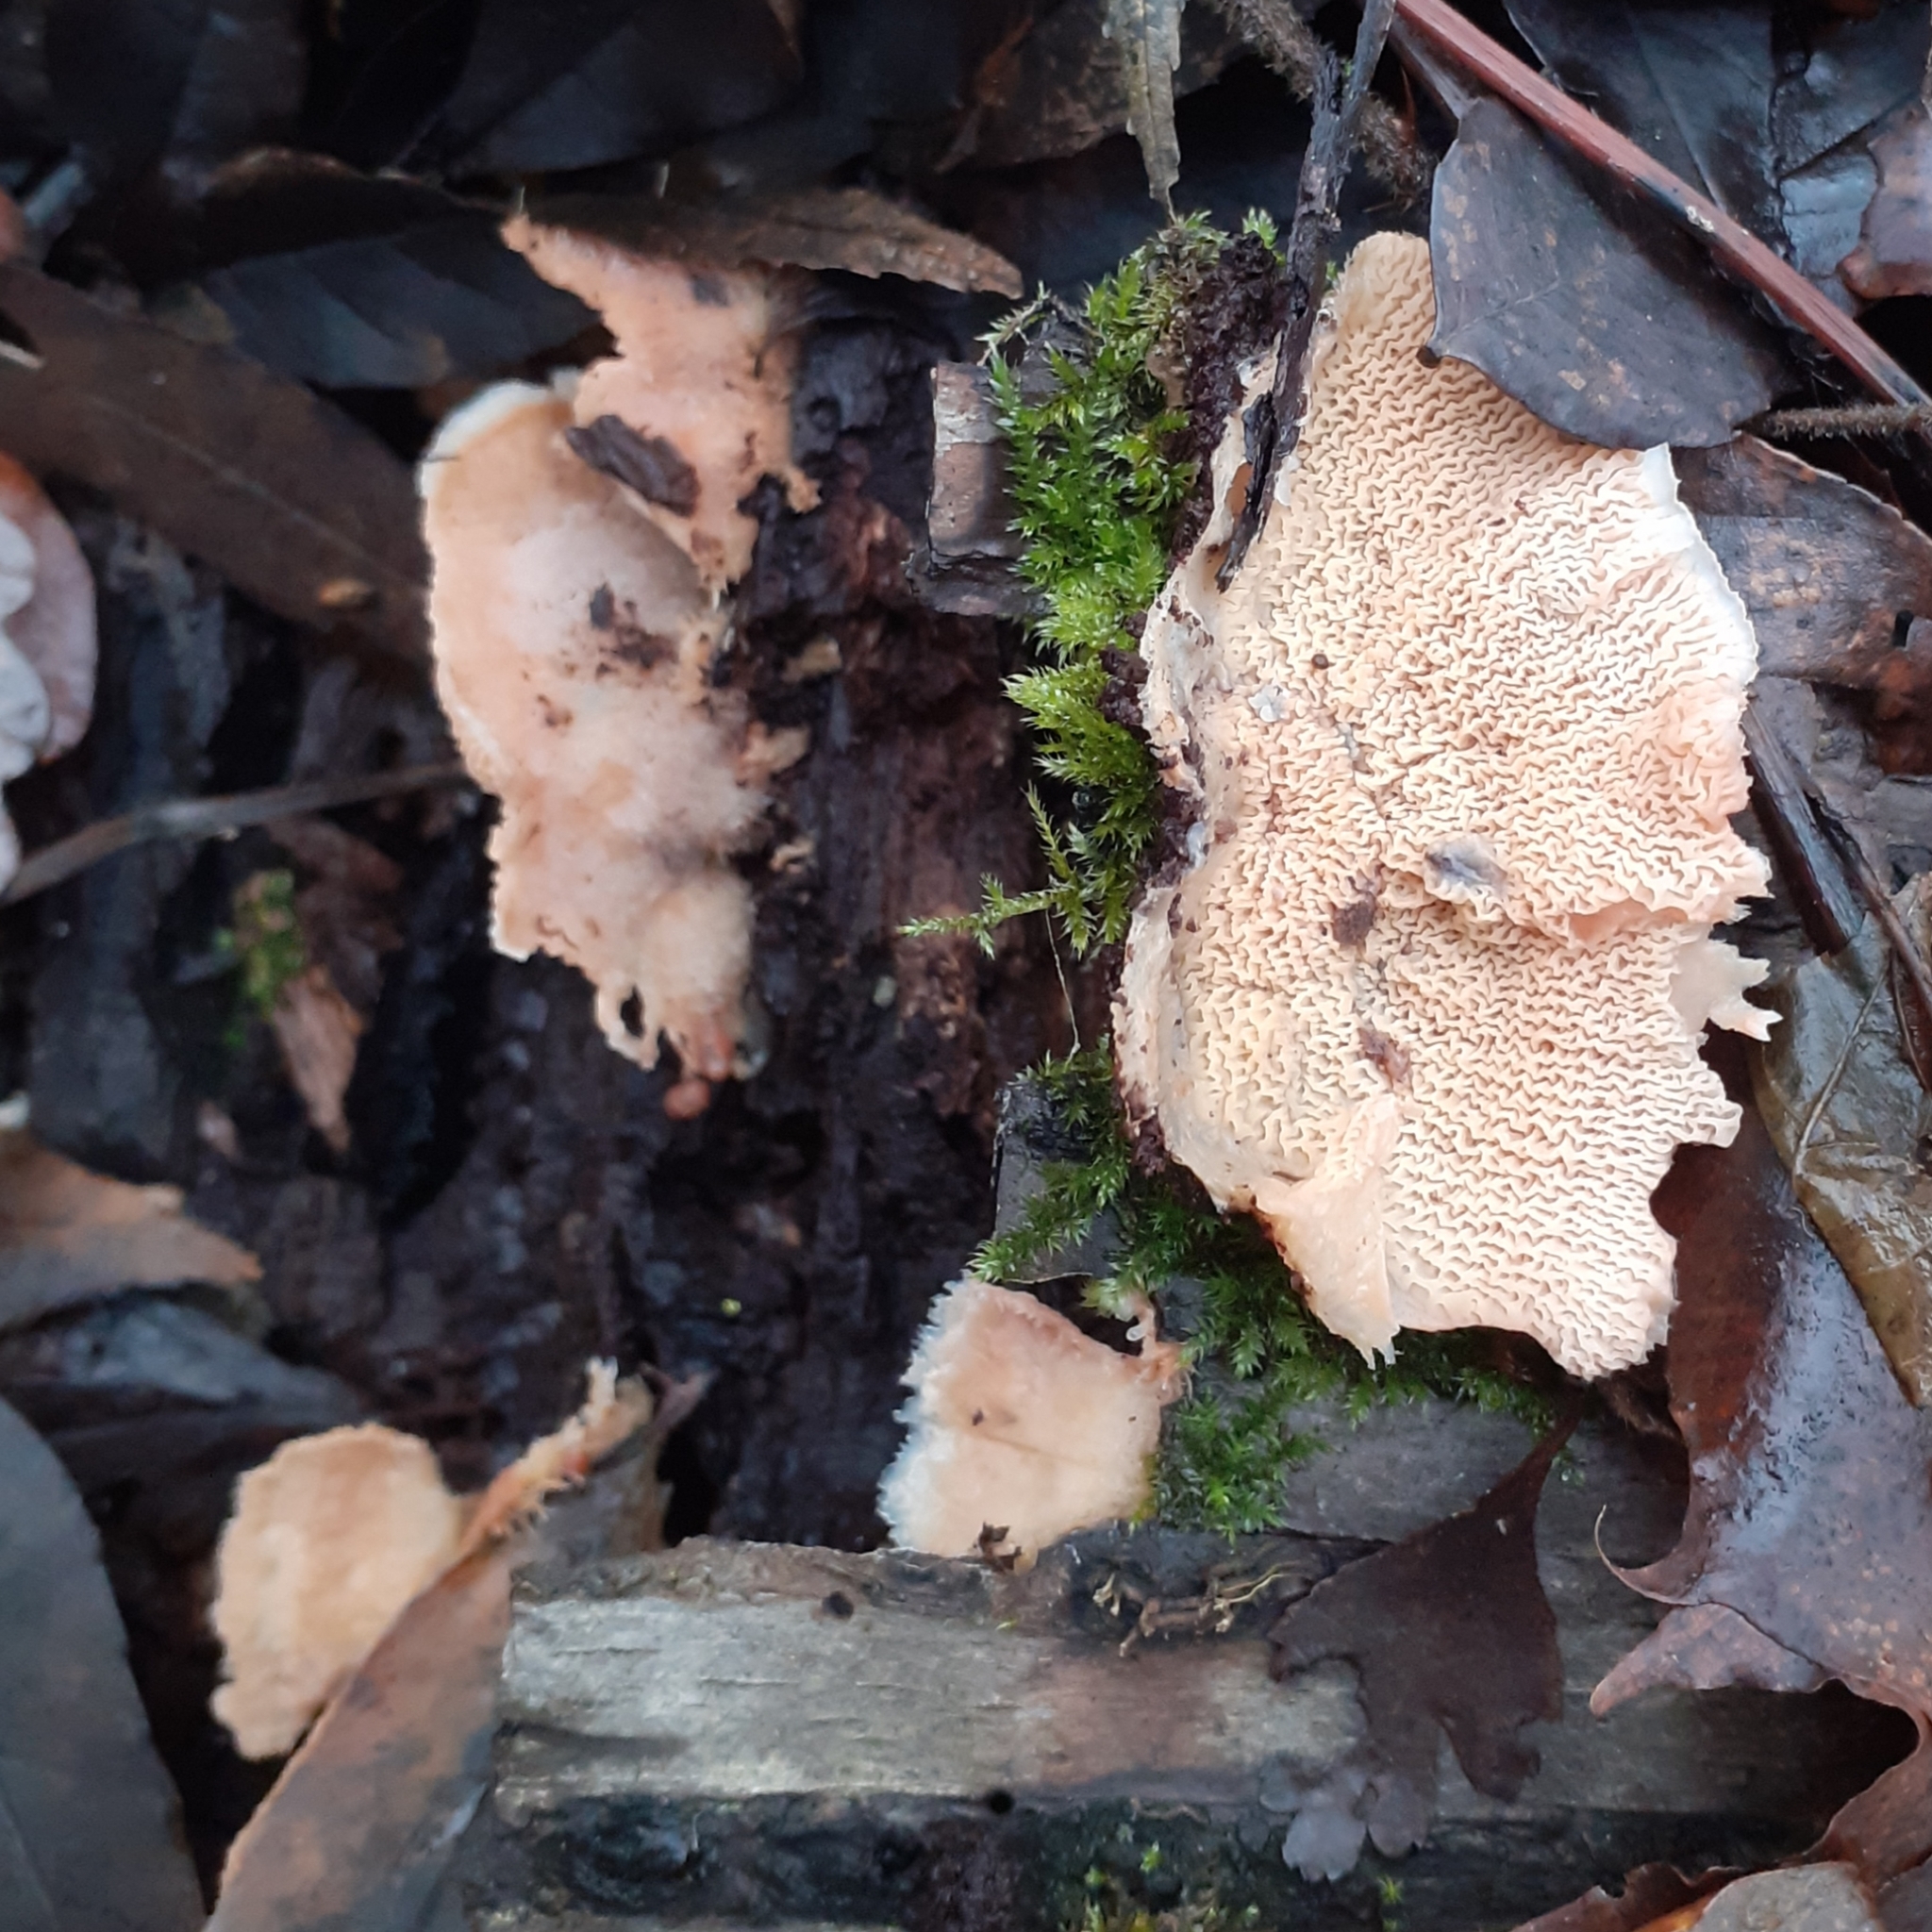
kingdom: Fungi
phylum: Basidiomycota
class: Agaricomycetes
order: Polyporales
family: Meruliaceae
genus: Phlebia
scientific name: Phlebia tremellosa
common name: Jelly rot
